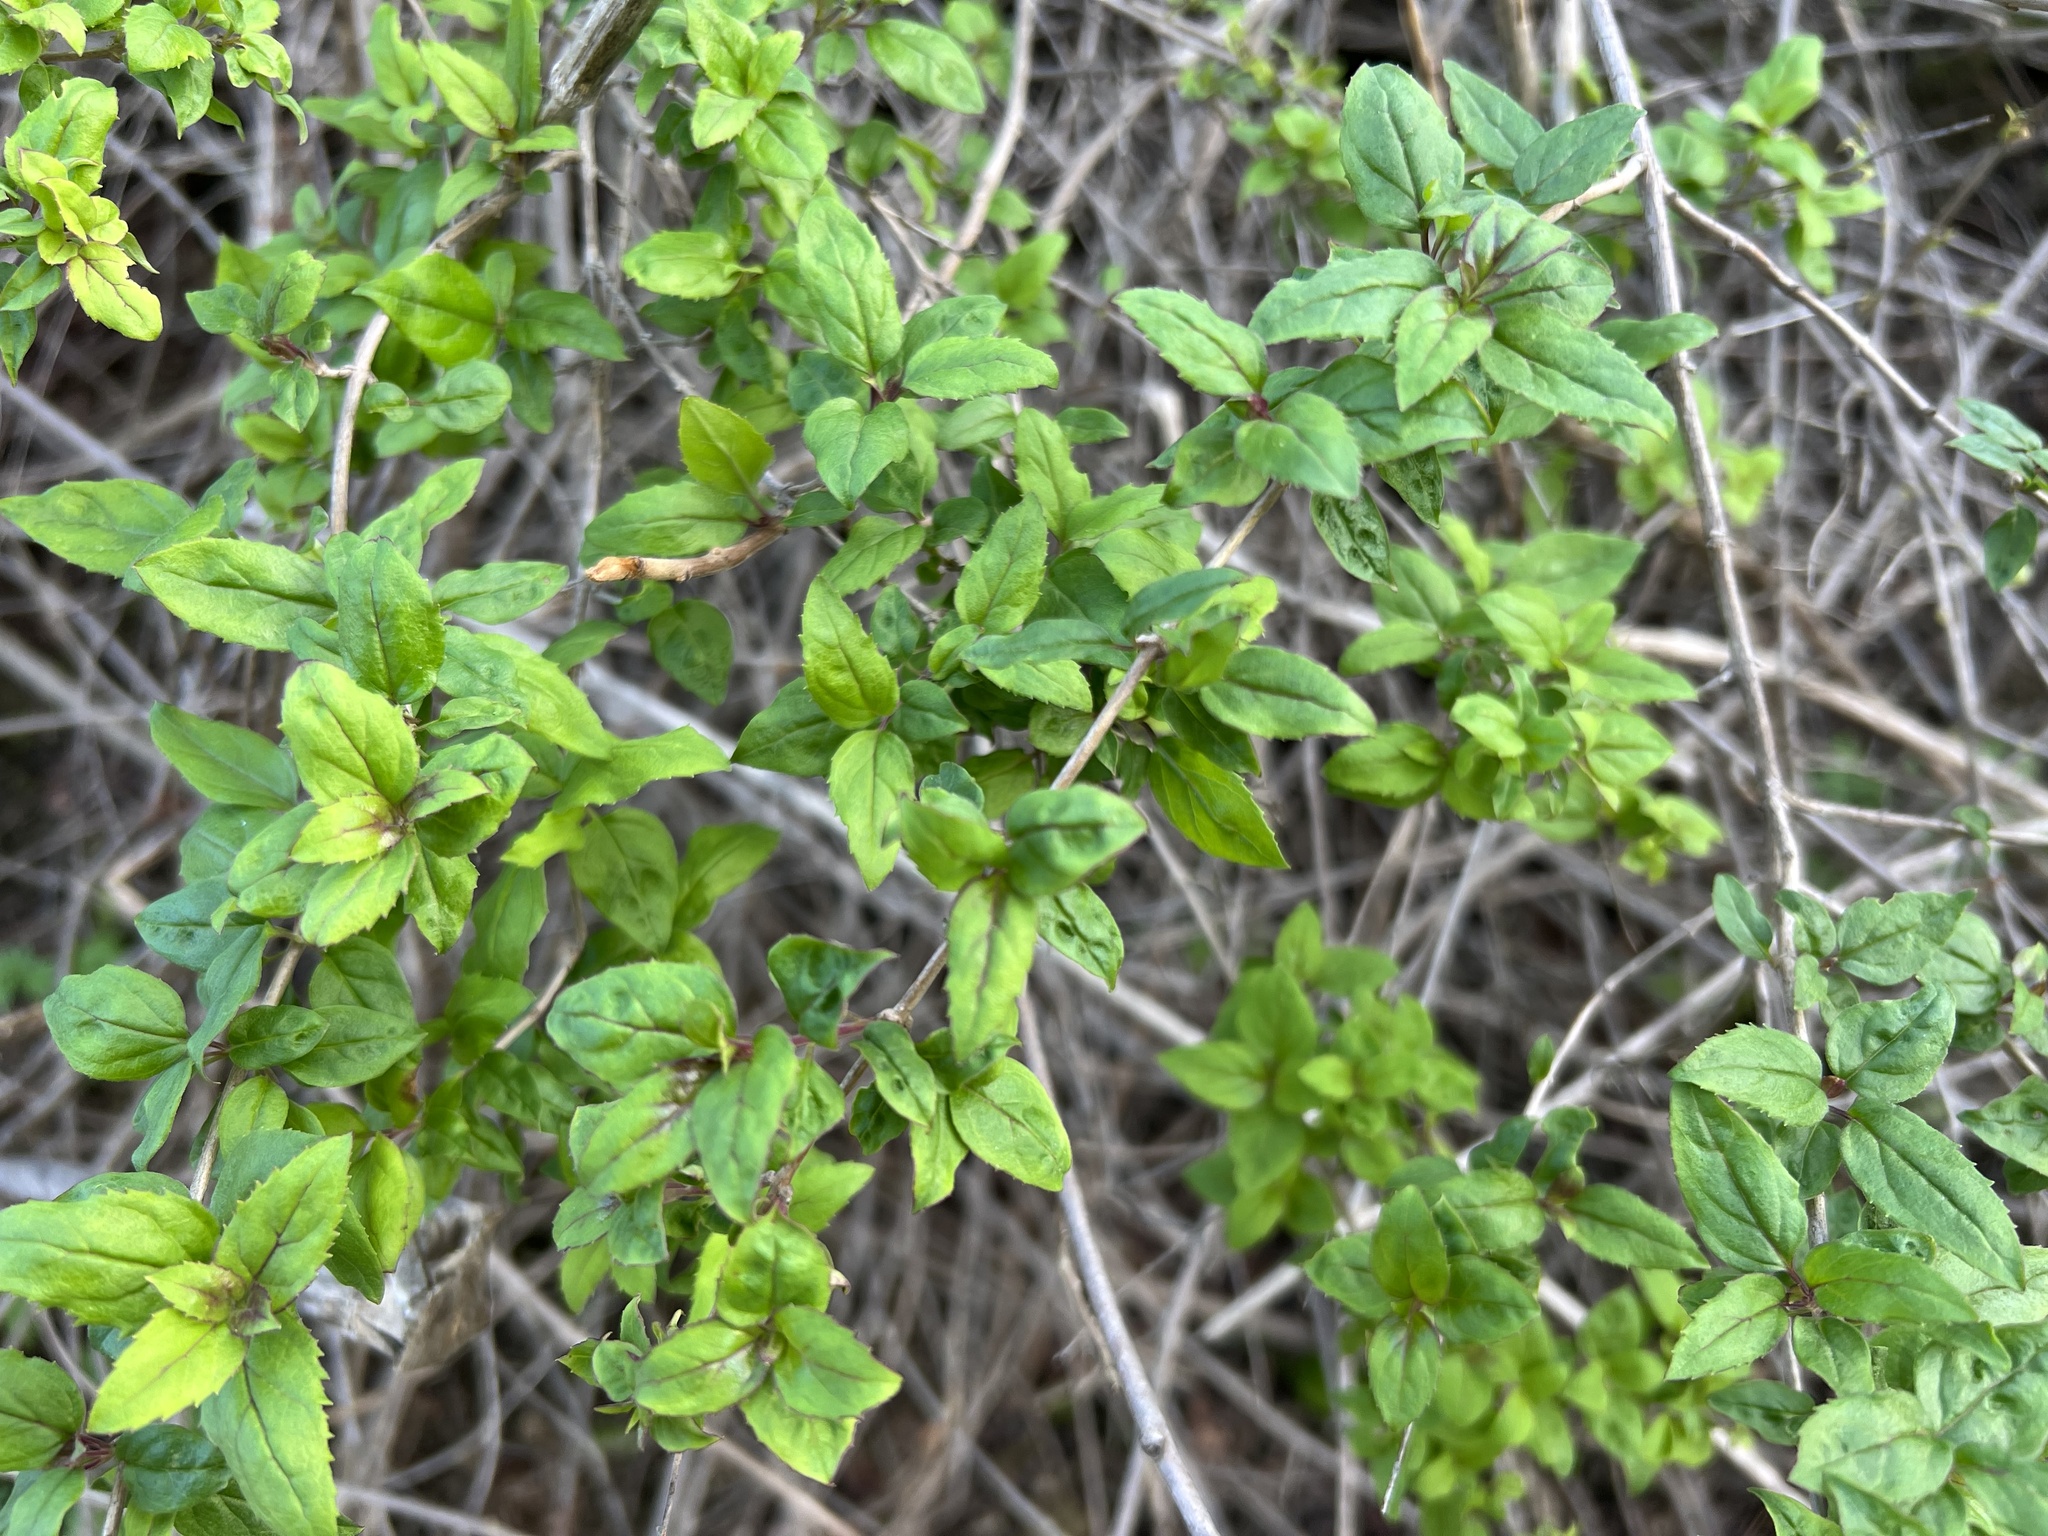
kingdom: Plantae
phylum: Tracheophyta
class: Magnoliopsida
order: Lamiales
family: Plantaginaceae
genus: Keckiella
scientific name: Keckiella cordifolia
